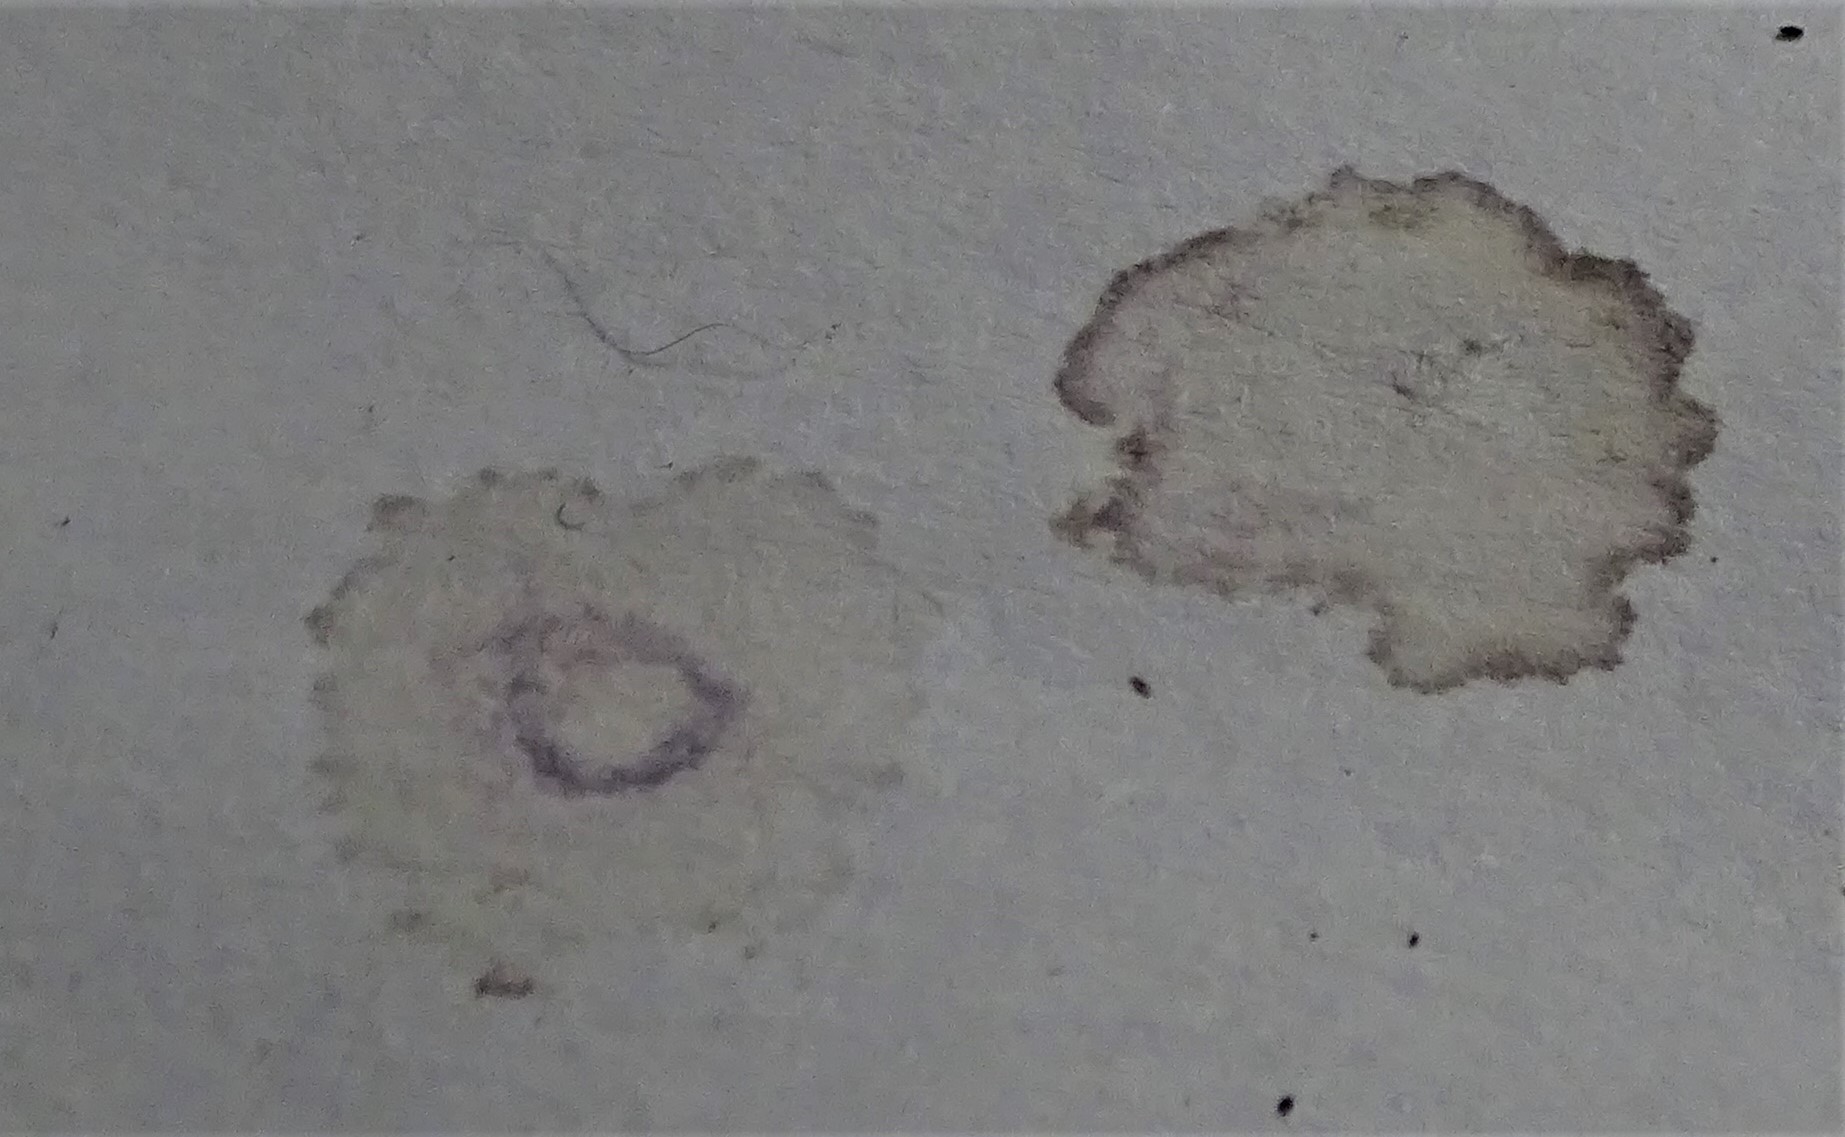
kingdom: Fungi
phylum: Basidiomycota
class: Agaricomycetes
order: Agaricales
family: Hydnangiaceae
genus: Laccaria
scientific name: Laccaria amethystina
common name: Amethyst deceiver
